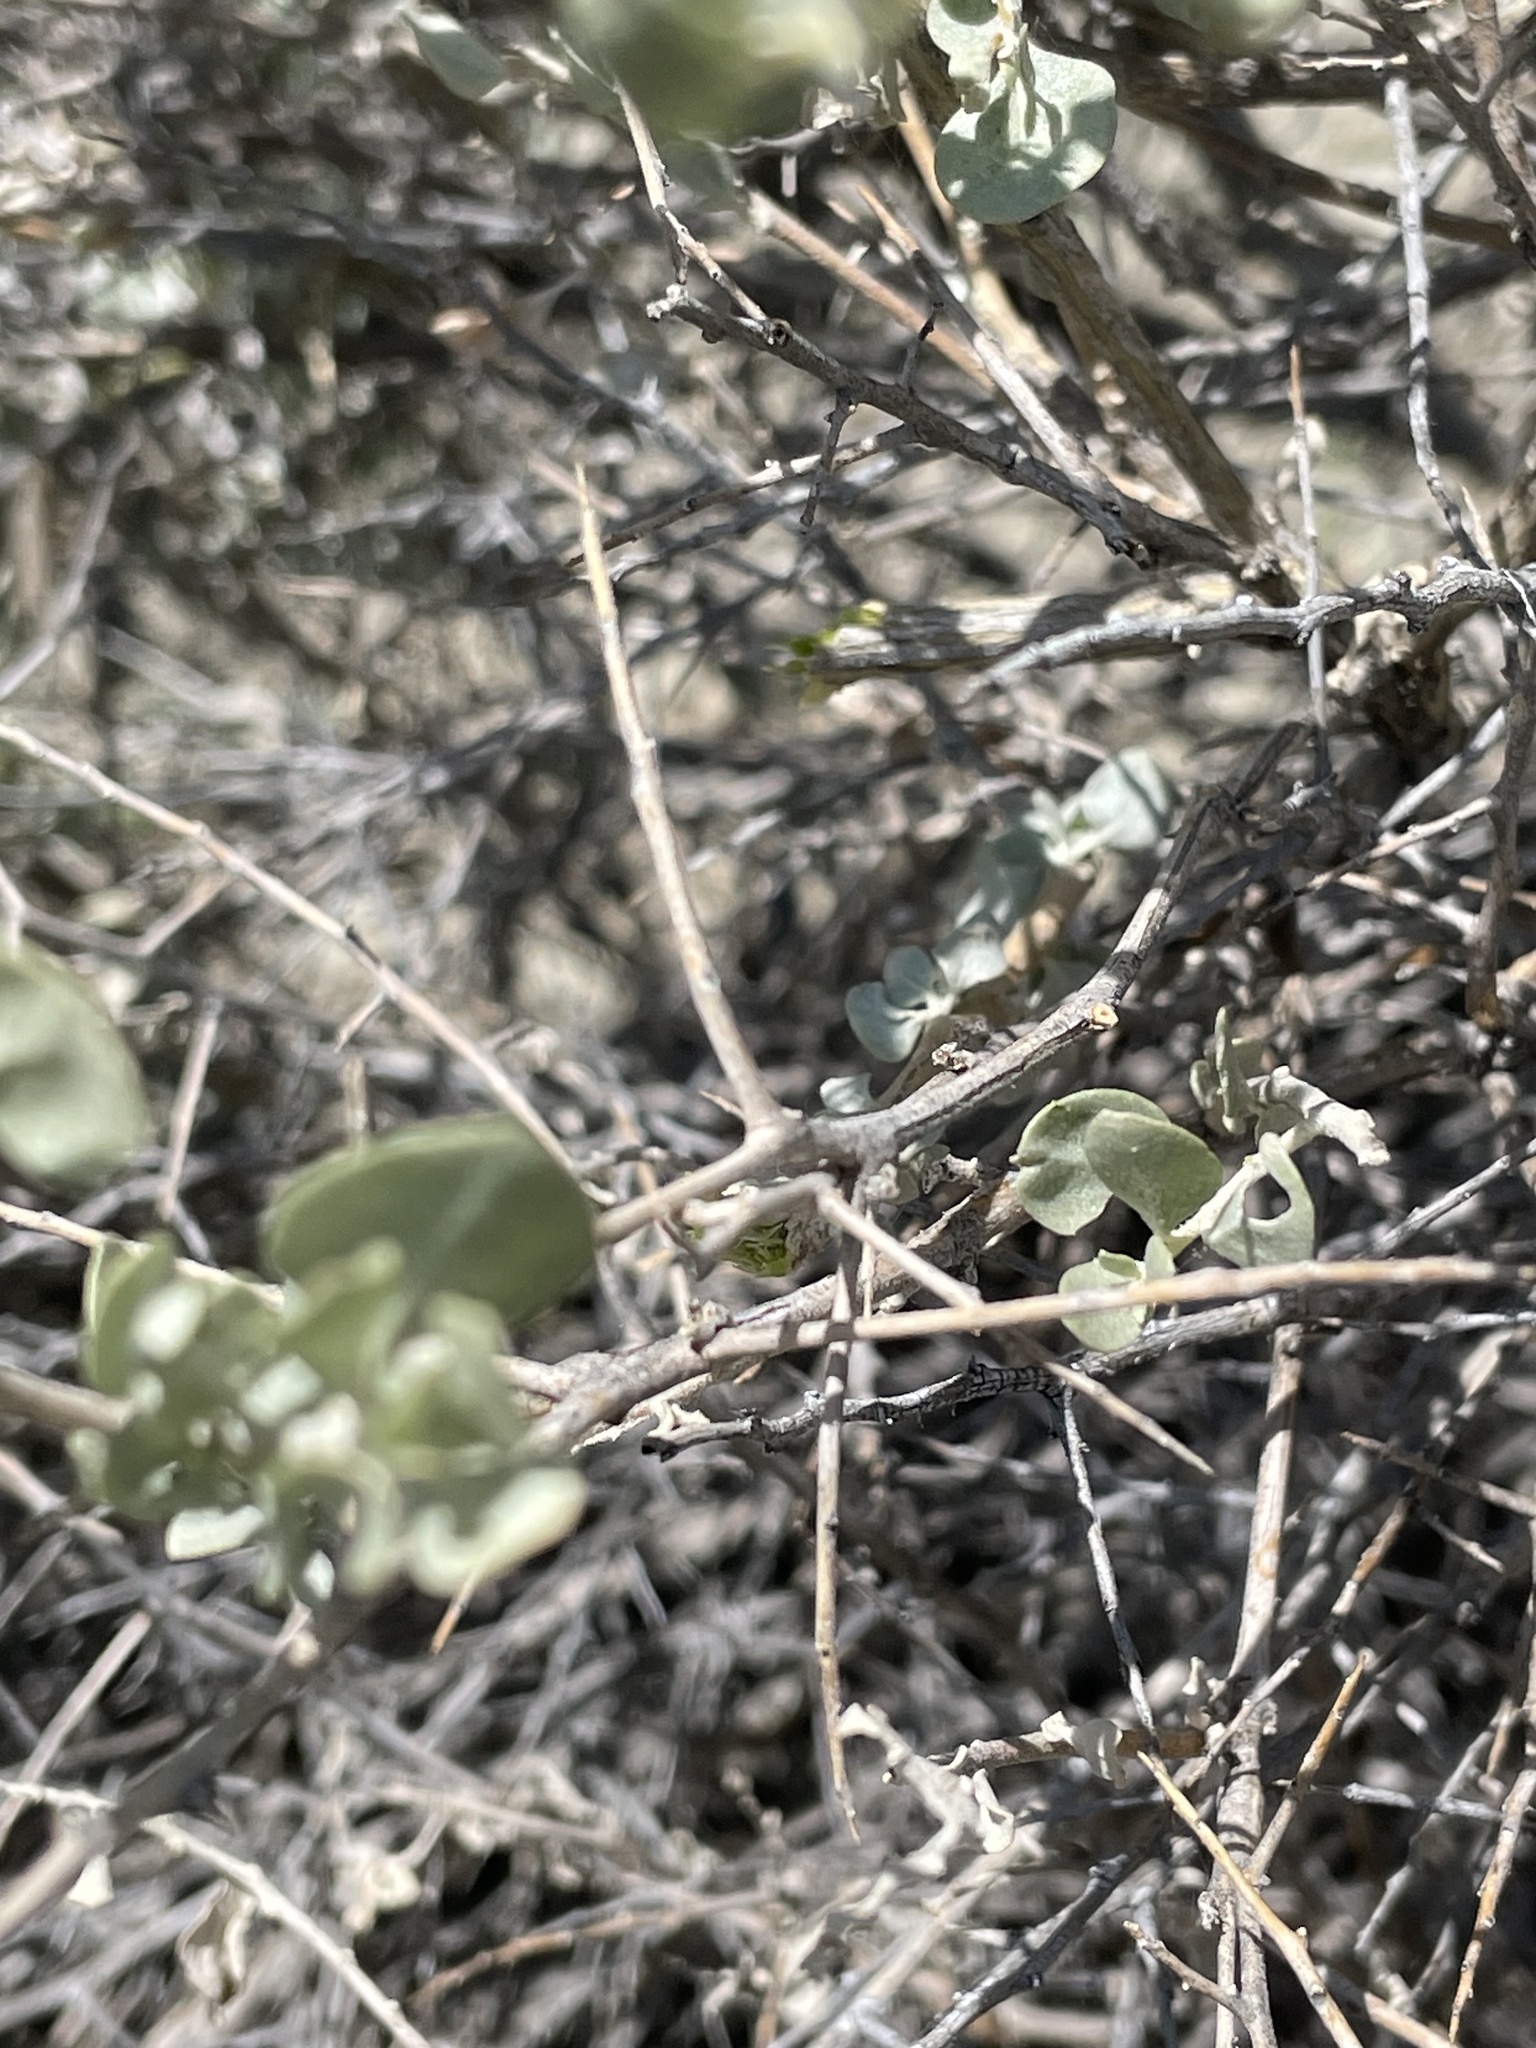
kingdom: Plantae
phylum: Tracheophyta
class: Magnoliopsida
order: Caryophyllales
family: Amaranthaceae
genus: Atriplex
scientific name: Atriplex confertifolia
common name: Shadscale
